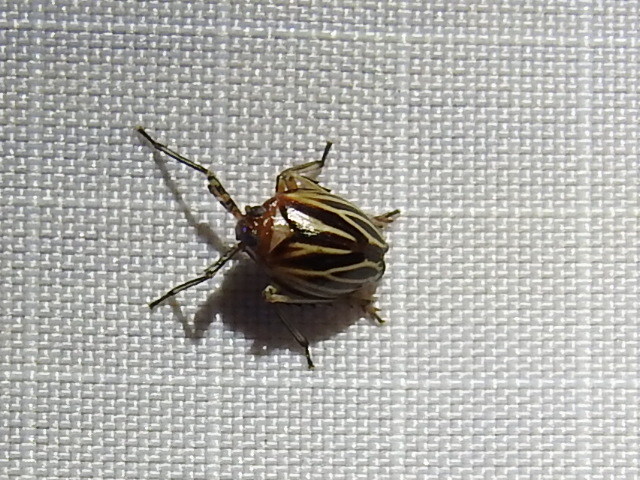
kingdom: Animalia
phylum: Arthropoda
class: Insecta
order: Hemiptera
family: Achilidae
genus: Isodaemon
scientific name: Isodaemon orontes
